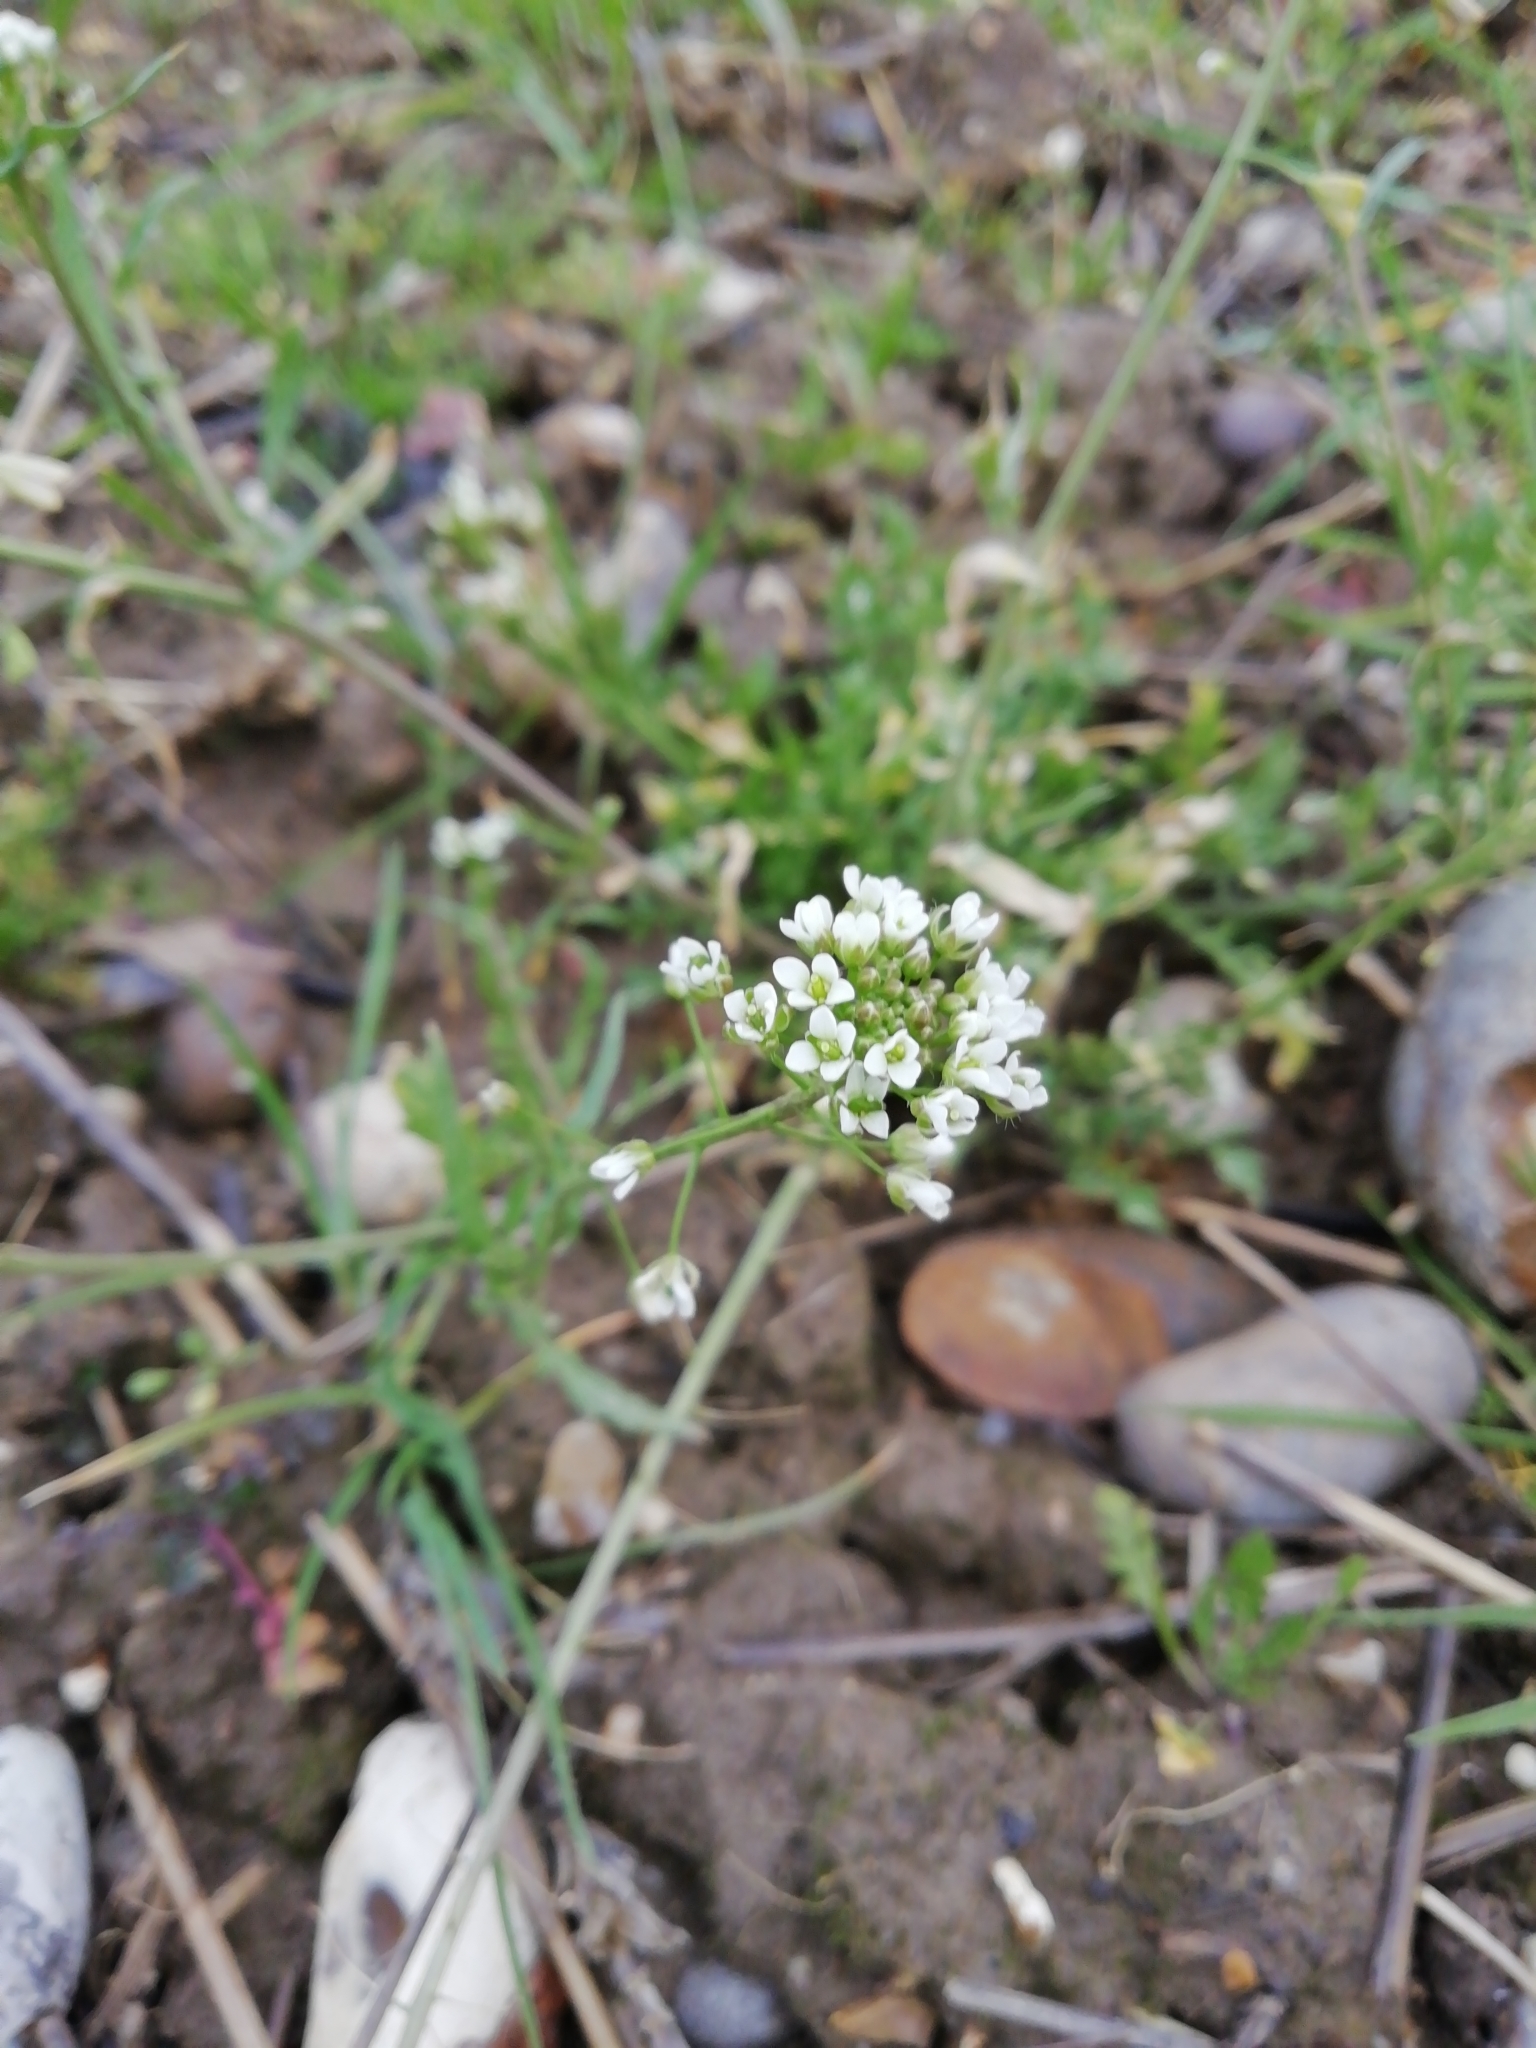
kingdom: Plantae
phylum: Tracheophyta
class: Magnoliopsida
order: Brassicales
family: Brassicaceae
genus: Capsella
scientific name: Capsella bursa-pastoris
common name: Shepherd's purse
